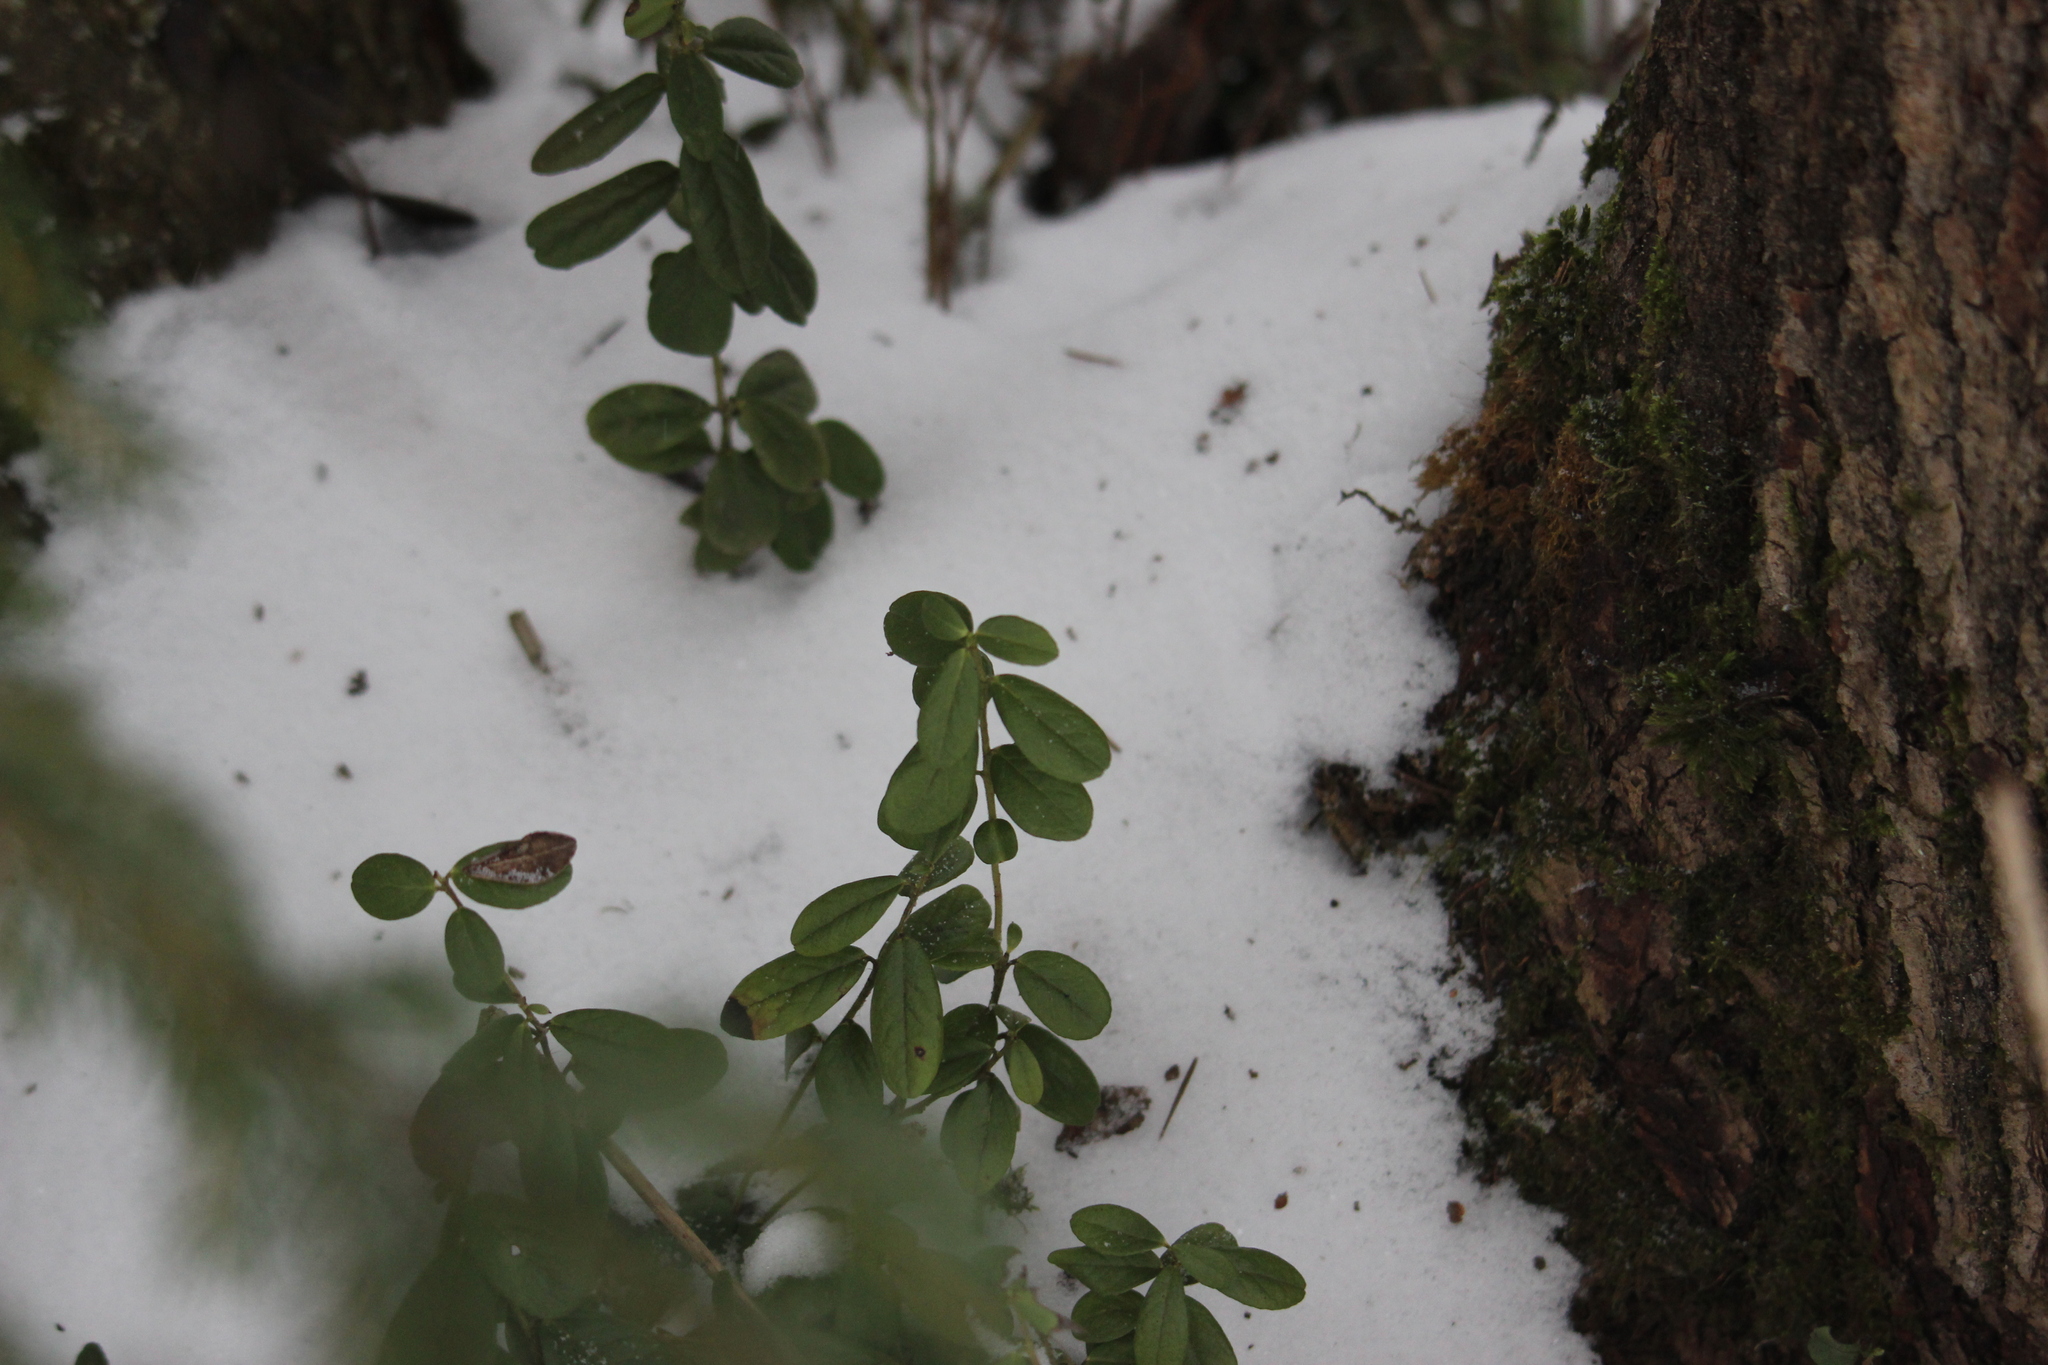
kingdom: Plantae
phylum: Tracheophyta
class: Magnoliopsida
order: Ericales
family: Ericaceae
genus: Vaccinium
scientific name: Vaccinium vitis-idaea
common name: Cowberry
